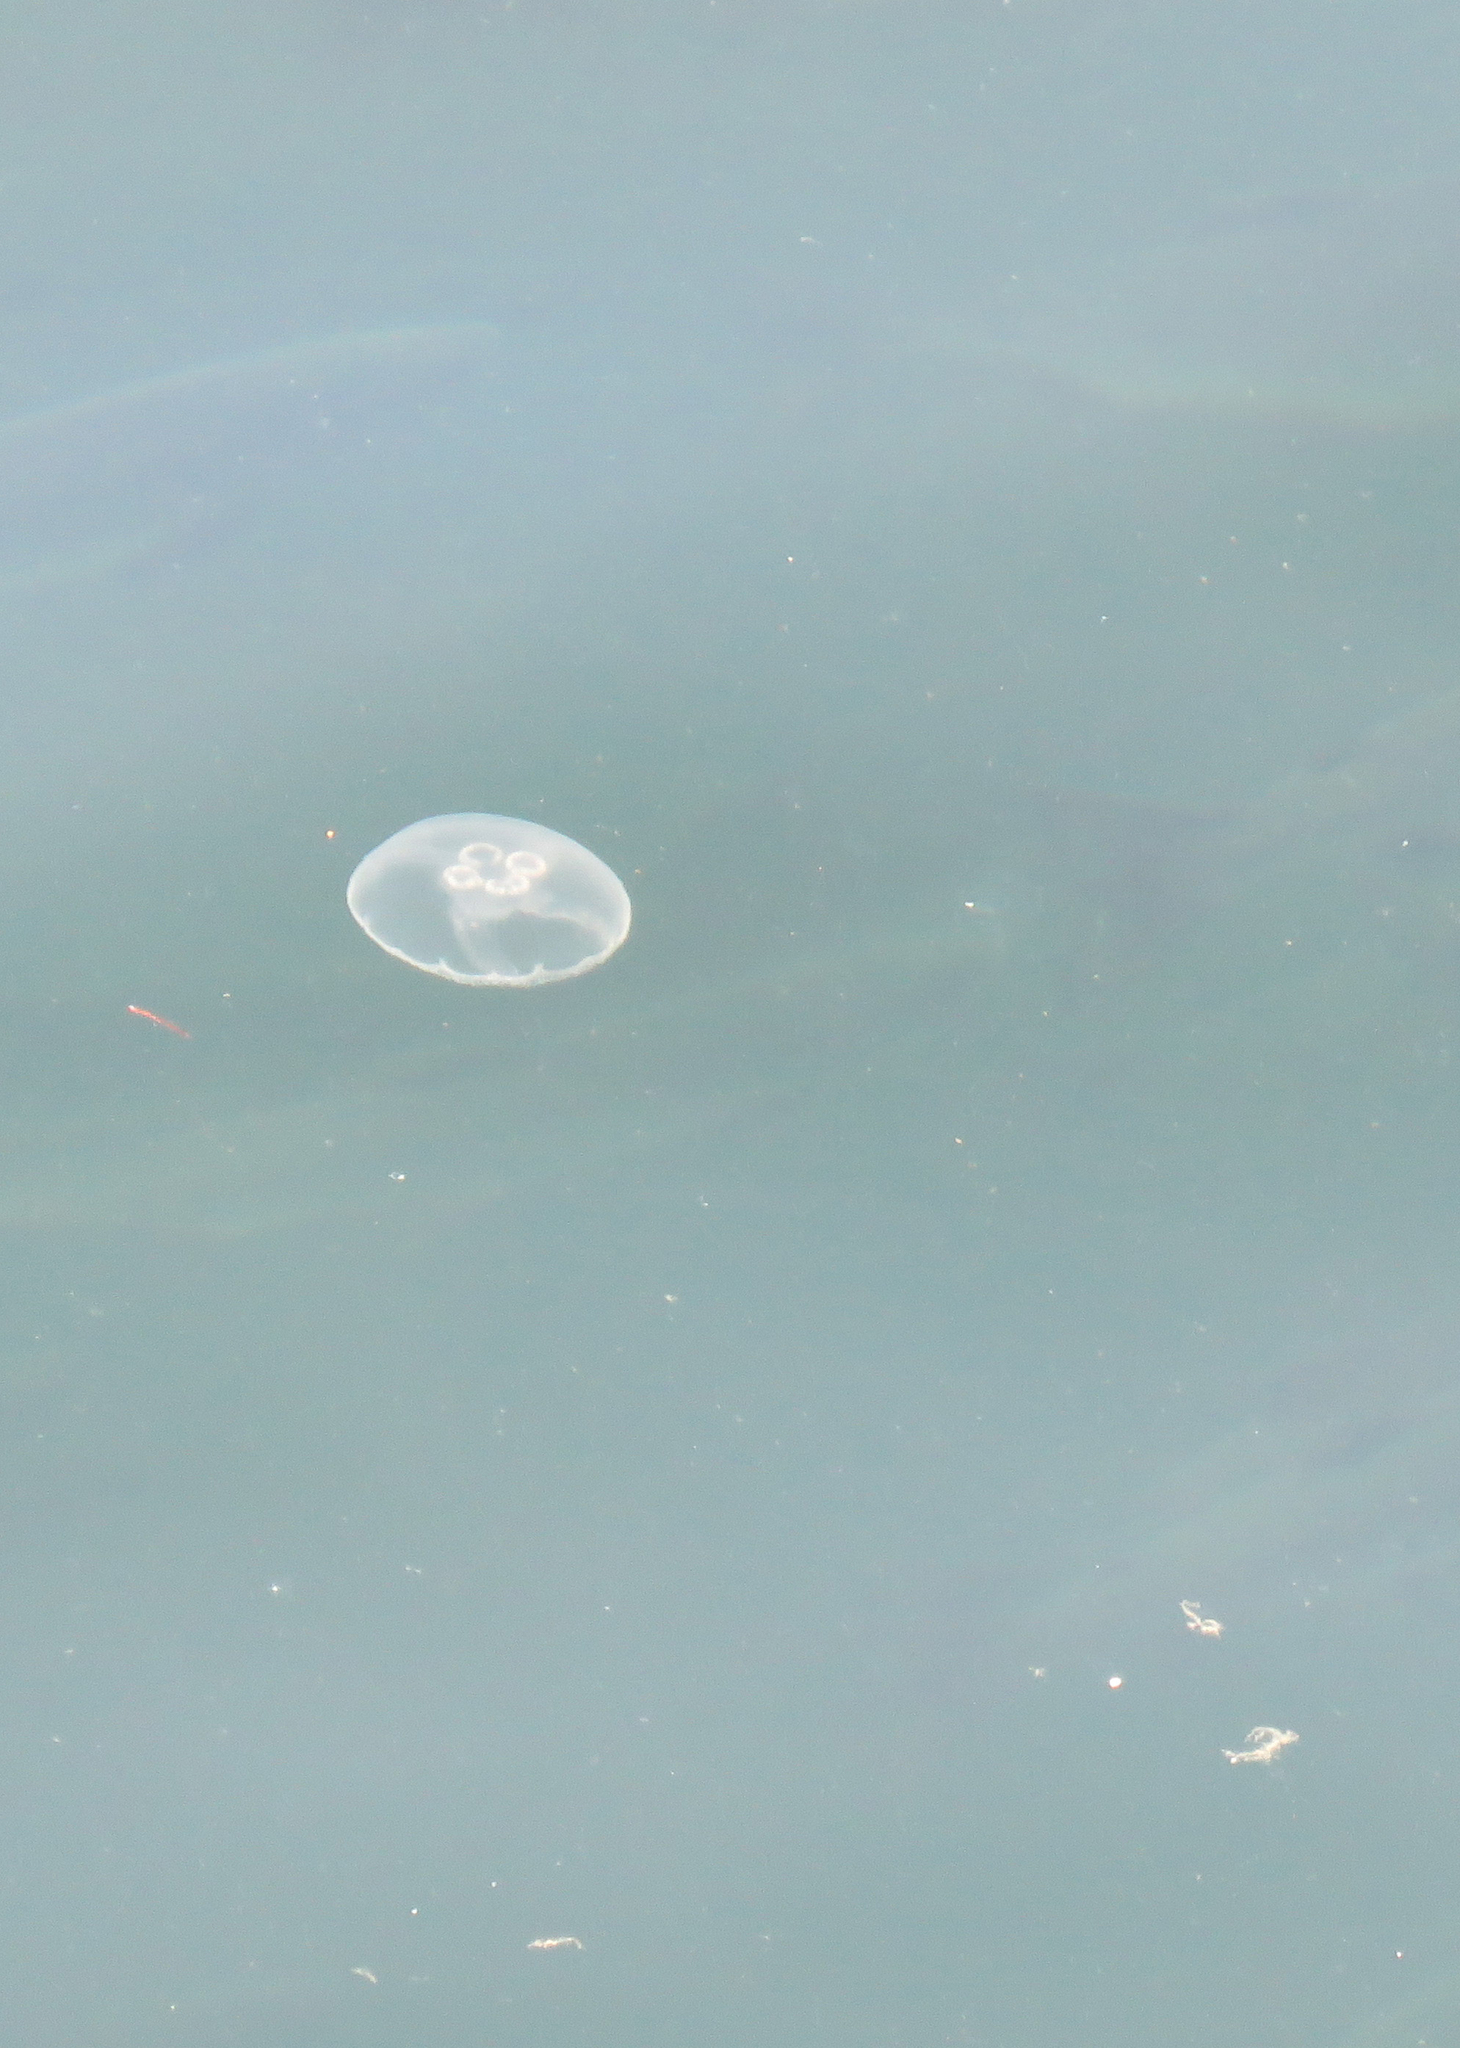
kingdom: Animalia
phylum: Cnidaria
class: Scyphozoa
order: Semaeostomeae
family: Ulmaridae
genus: Aurelia
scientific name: Aurelia labiata
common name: Pacific moon jelly
